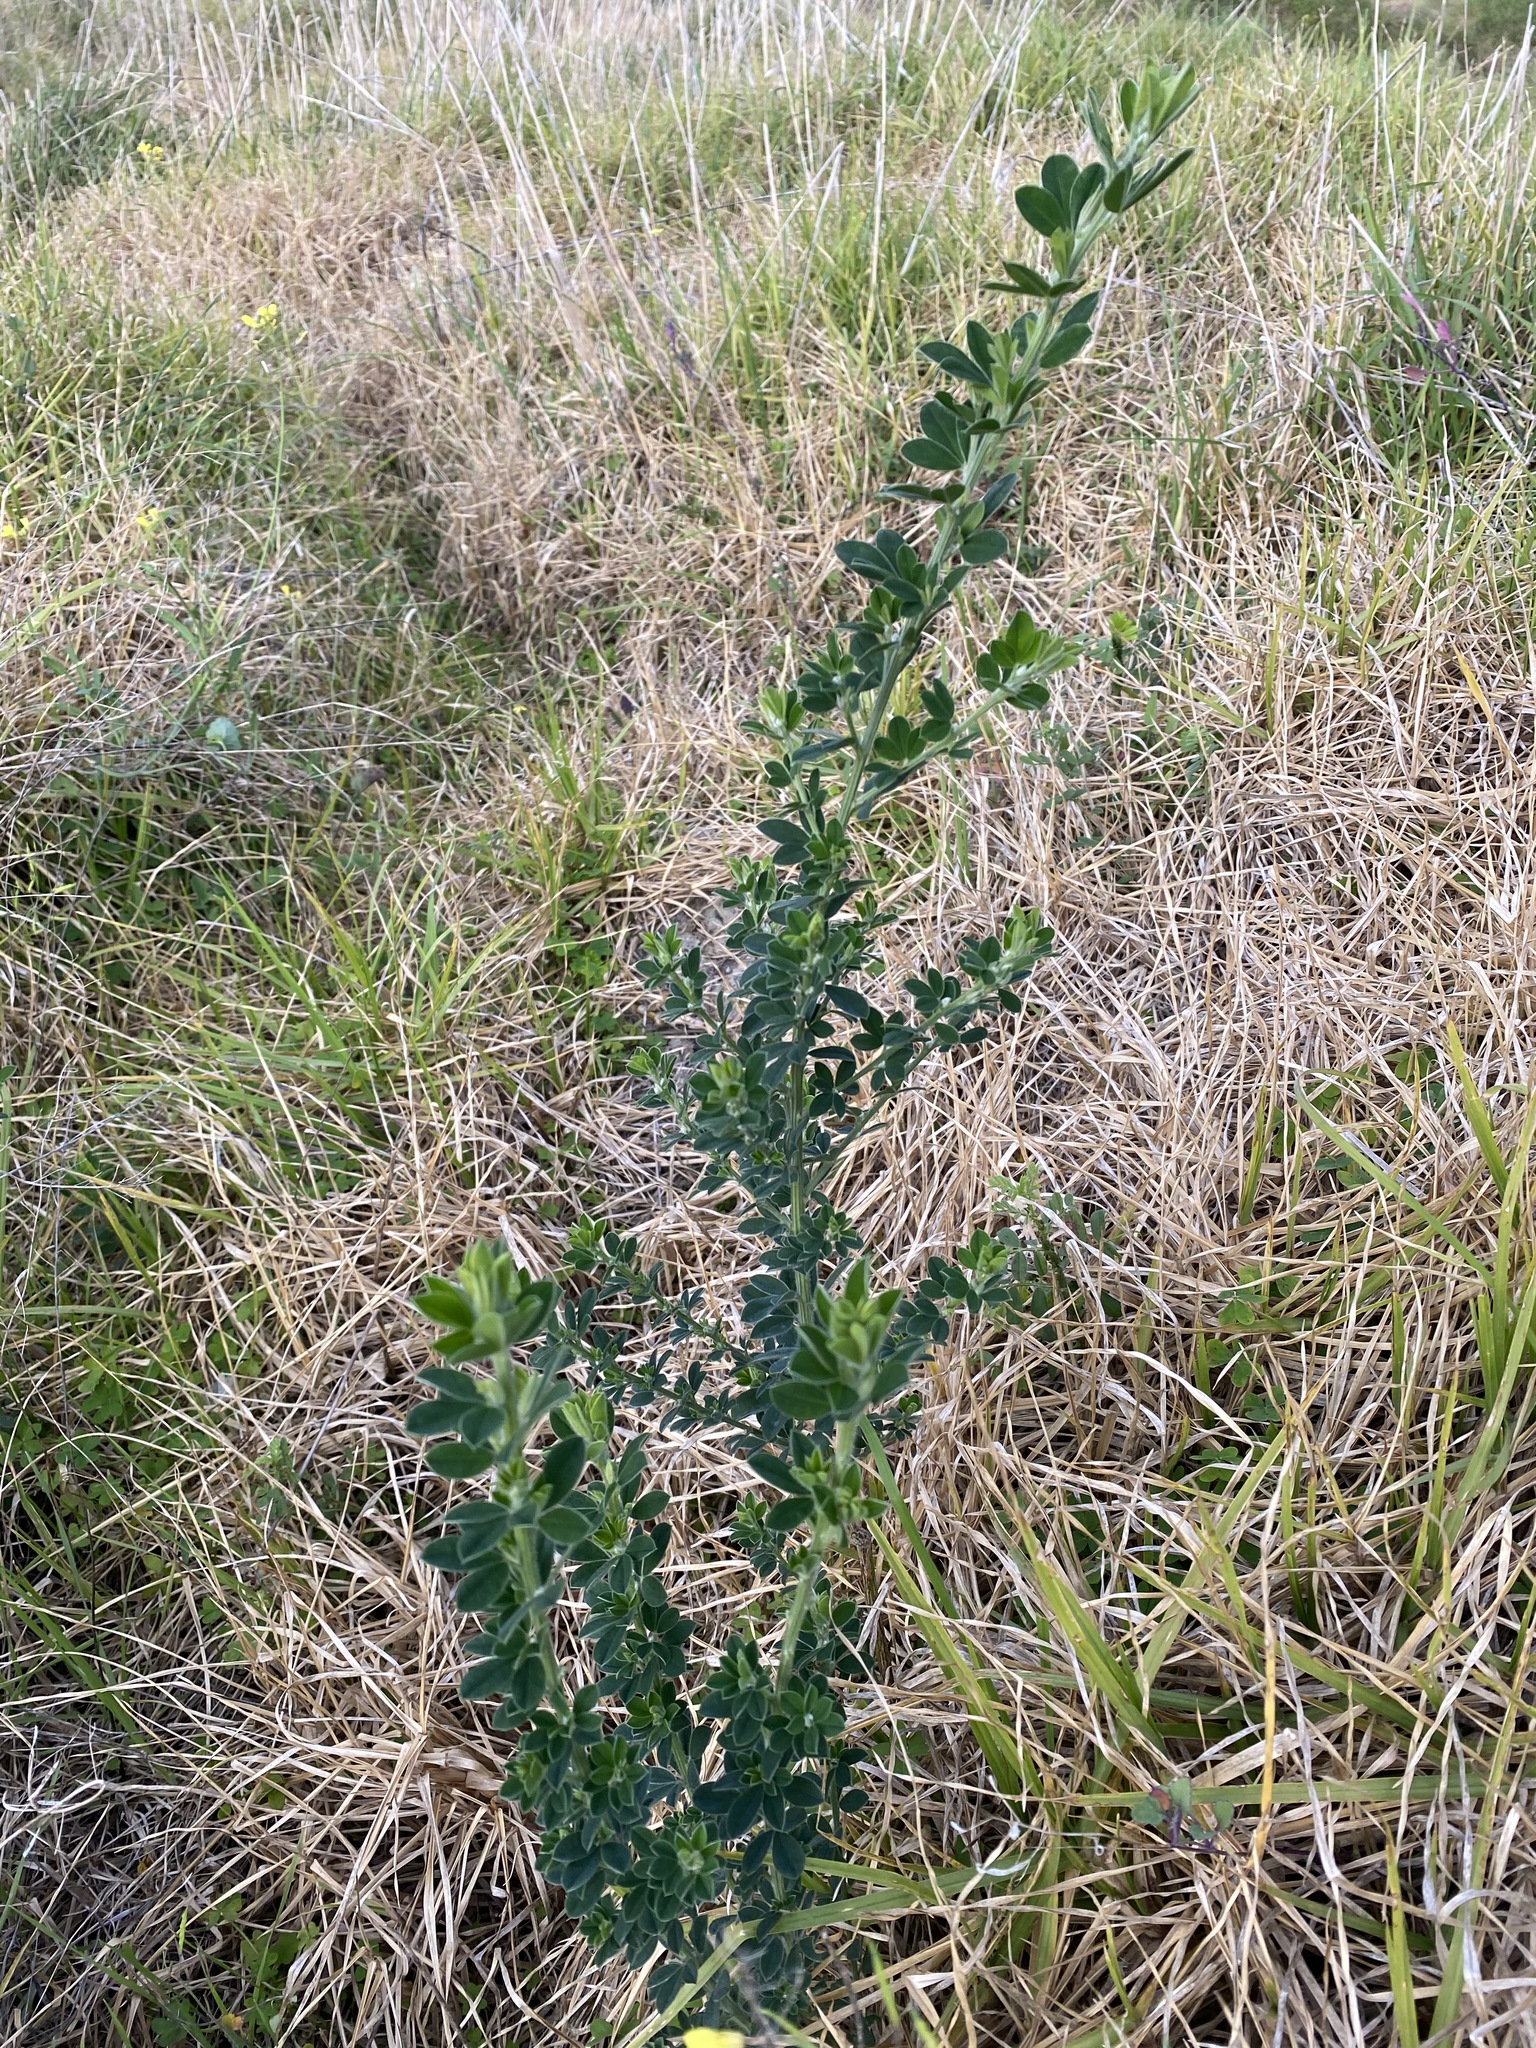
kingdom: Plantae
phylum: Tracheophyta
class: Magnoliopsida
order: Fabales
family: Fabaceae
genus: Genista
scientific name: Genista monspessulana
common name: Montpellier broom
